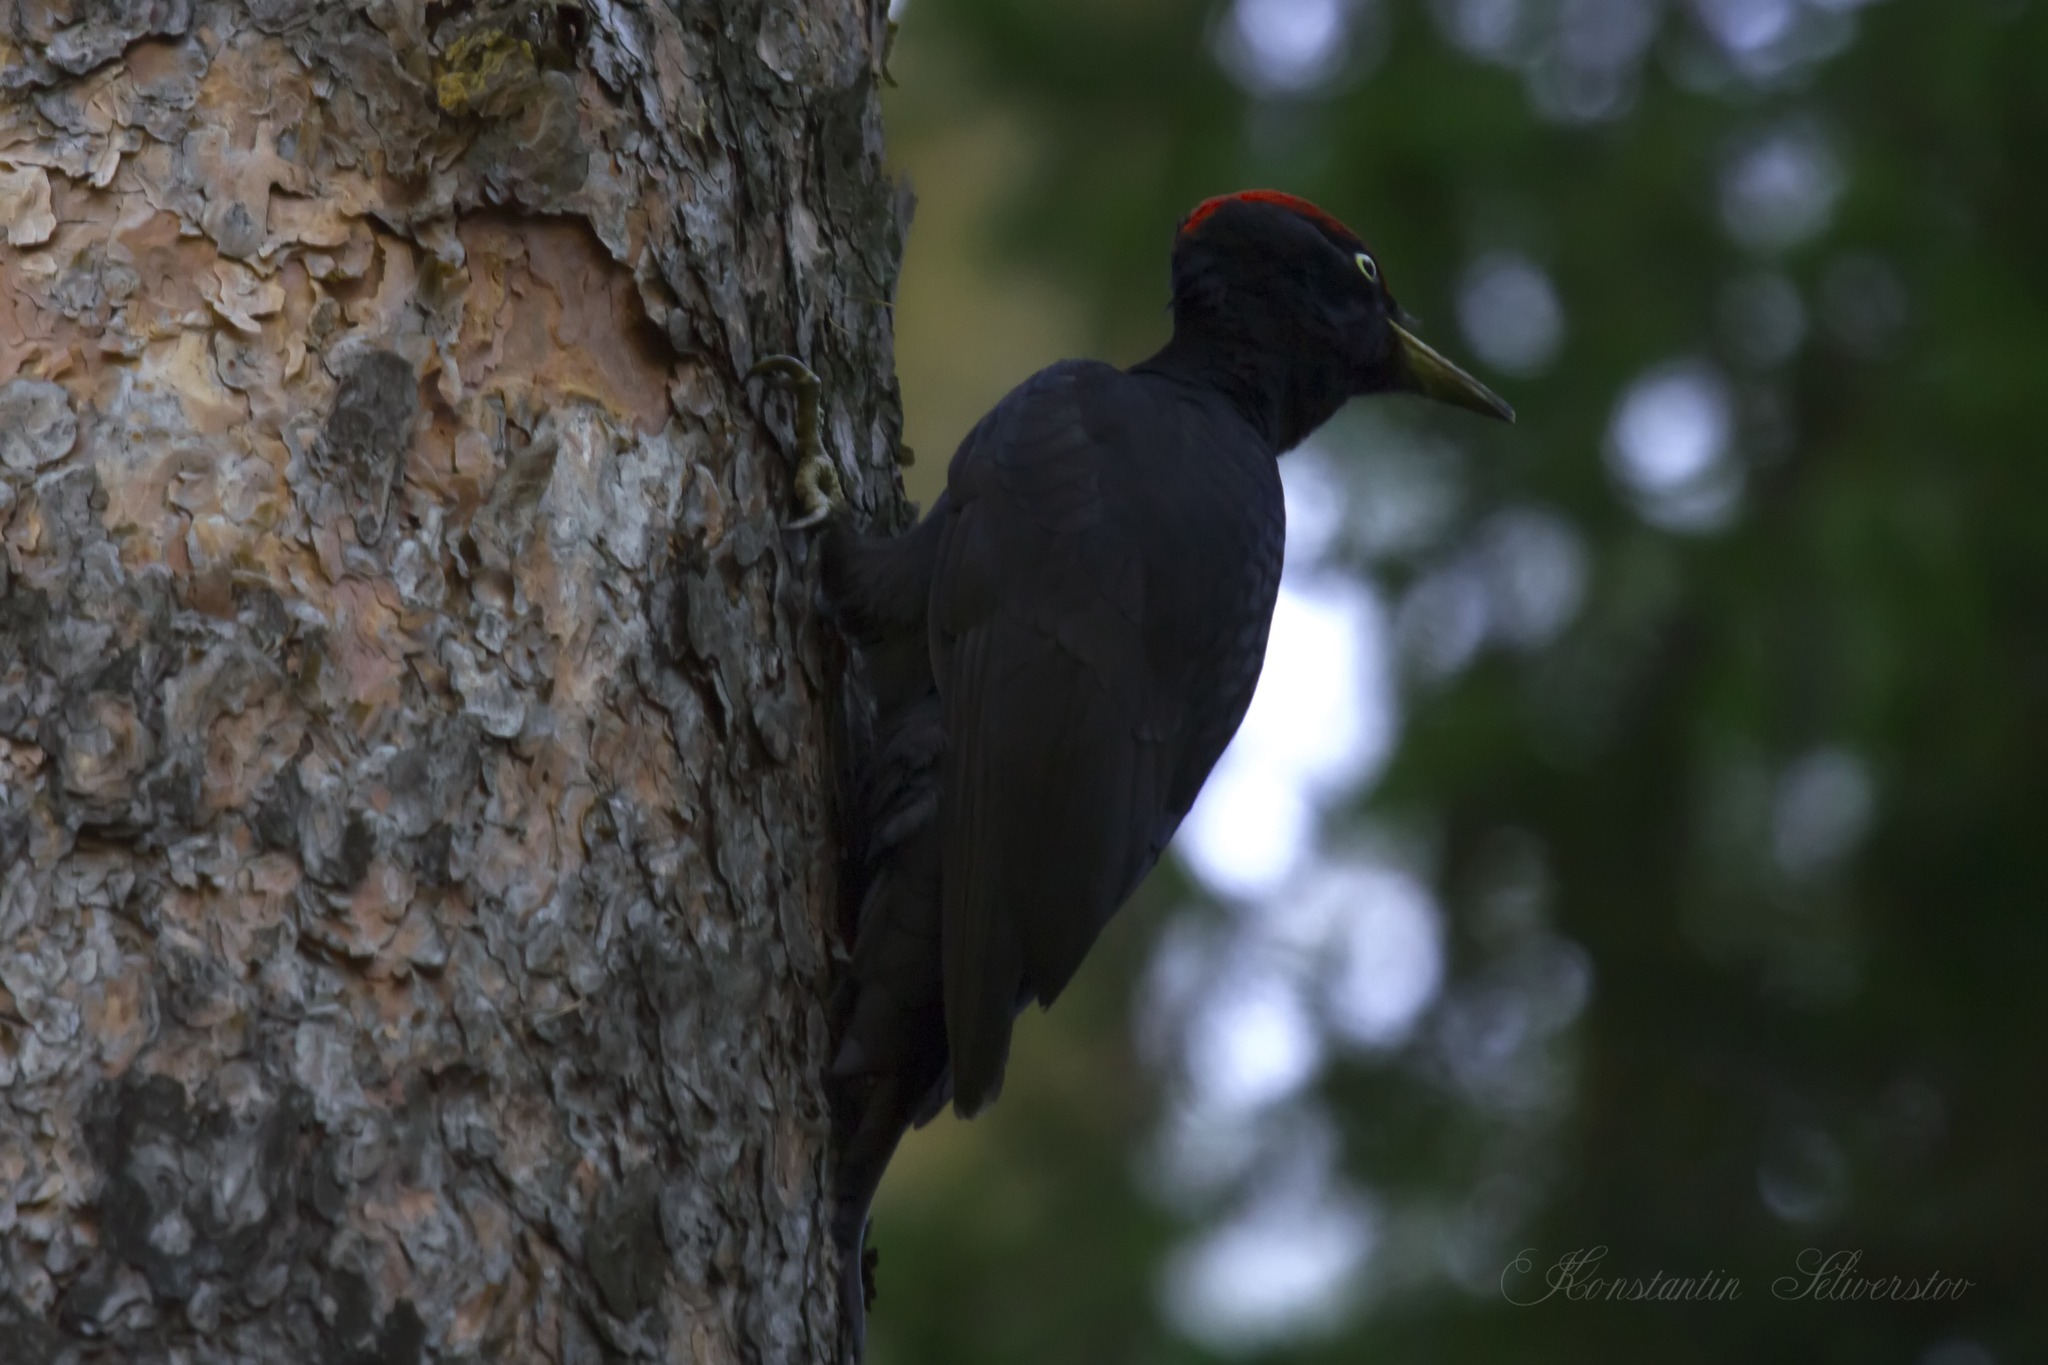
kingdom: Animalia
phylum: Chordata
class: Aves
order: Piciformes
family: Picidae
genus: Dryocopus
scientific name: Dryocopus martius
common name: Black woodpecker
